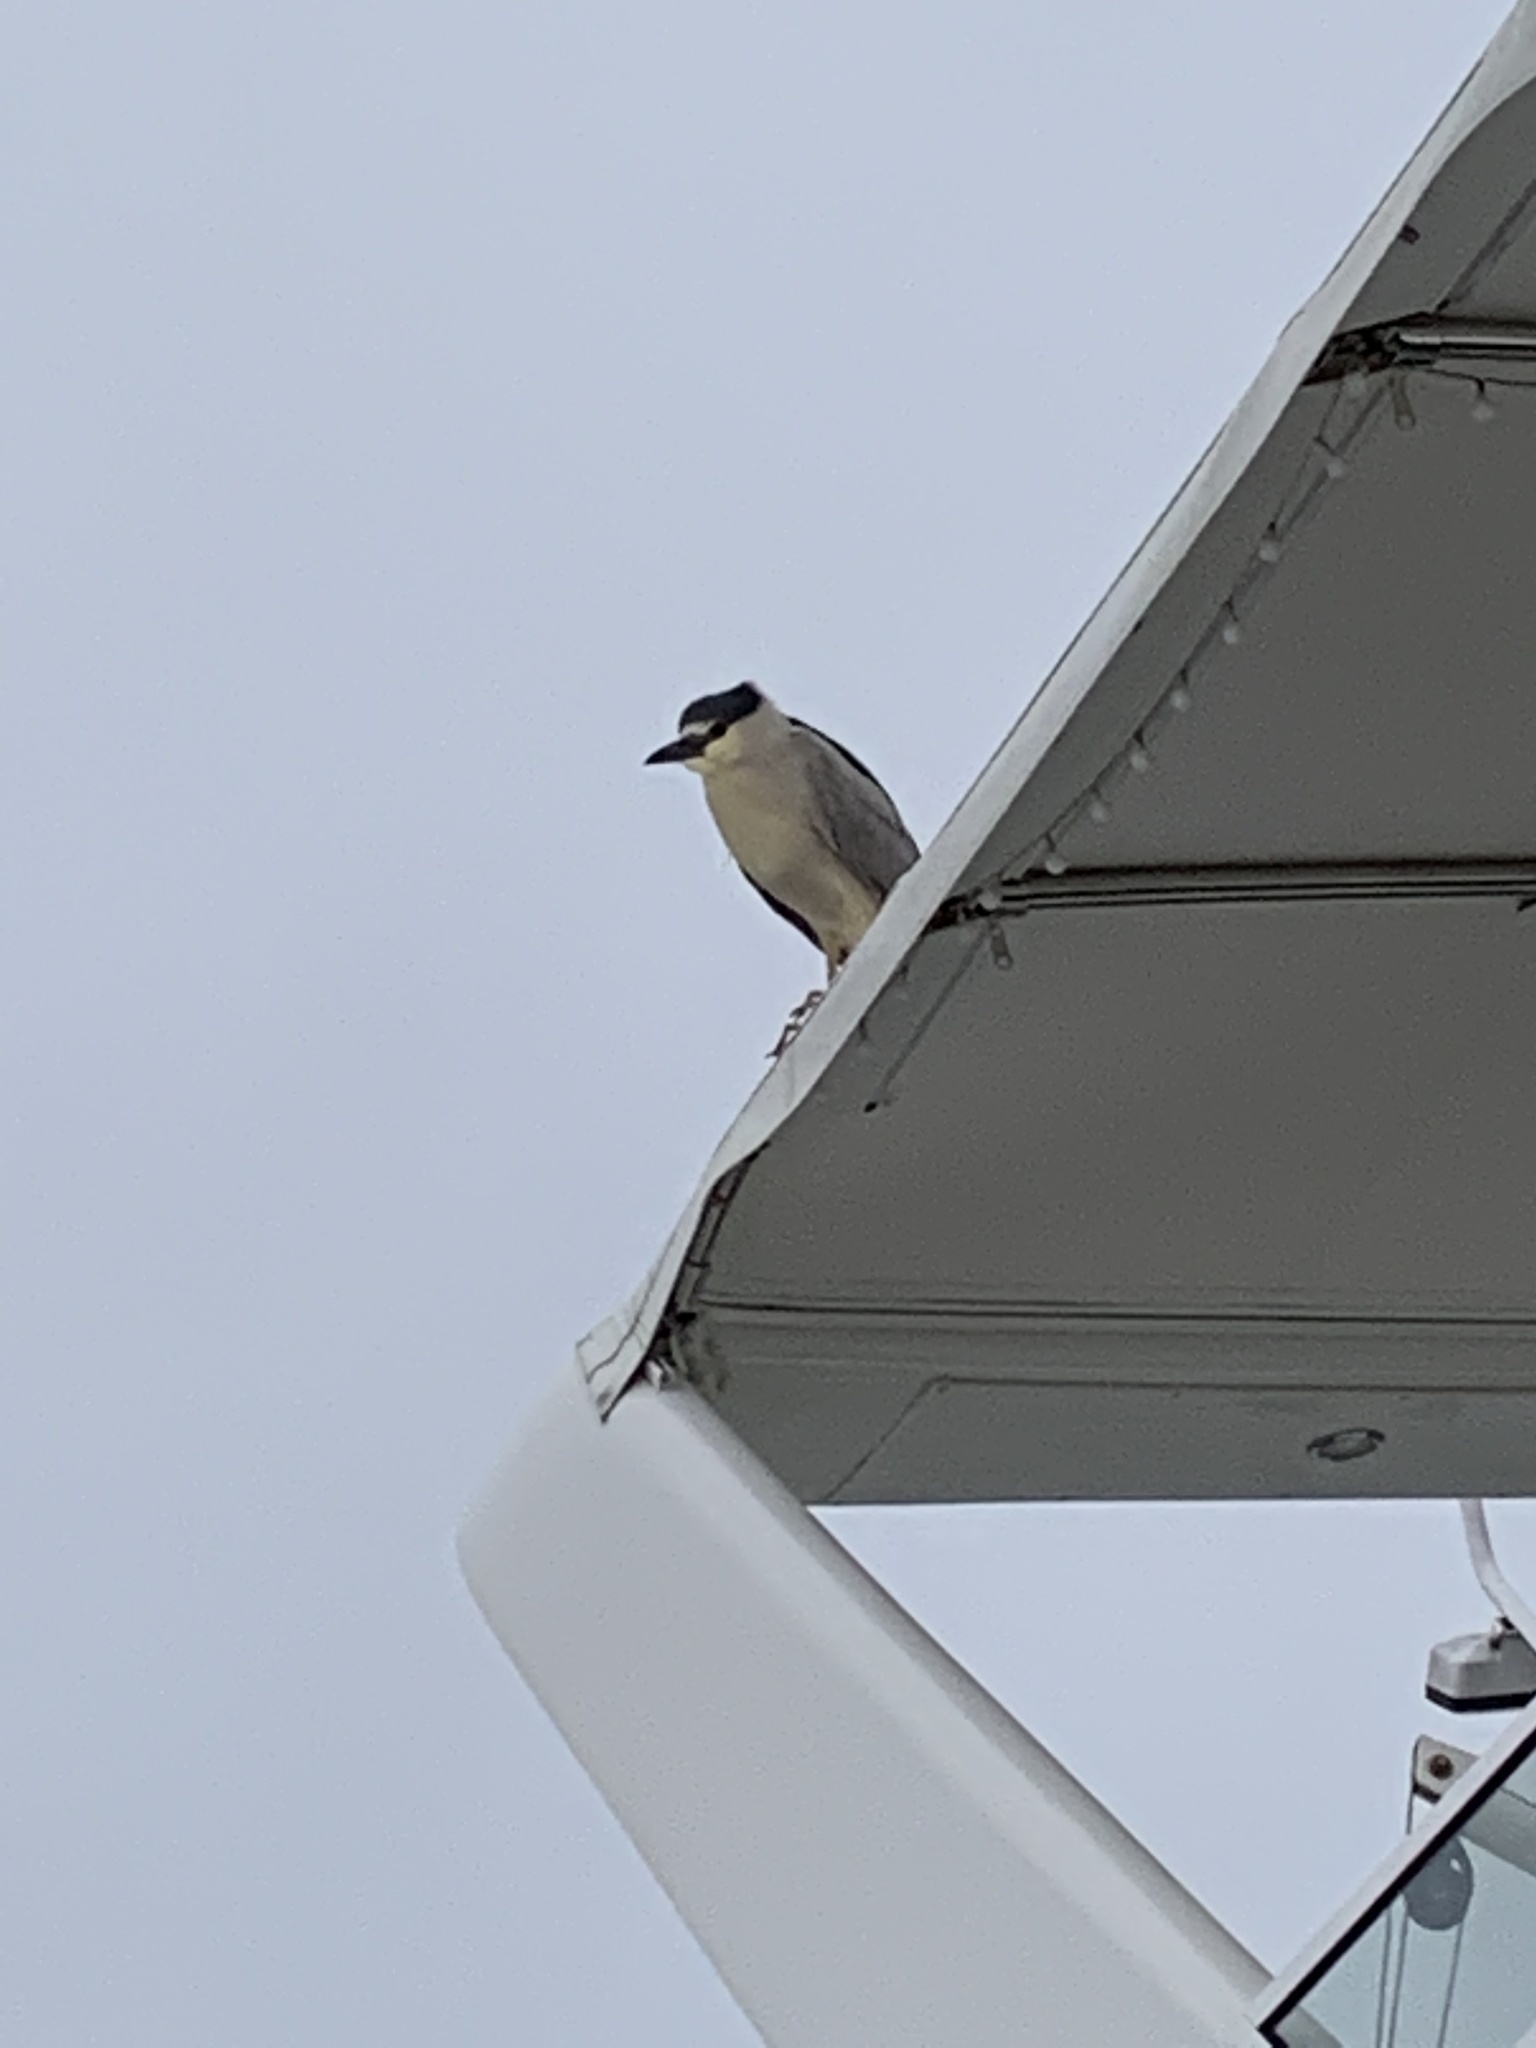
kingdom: Animalia
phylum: Chordata
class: Aves
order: Pelecaniformes
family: Ardeidae
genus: Nycticorax
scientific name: Nycticorax nycticorax
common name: Black-crowned night heron
